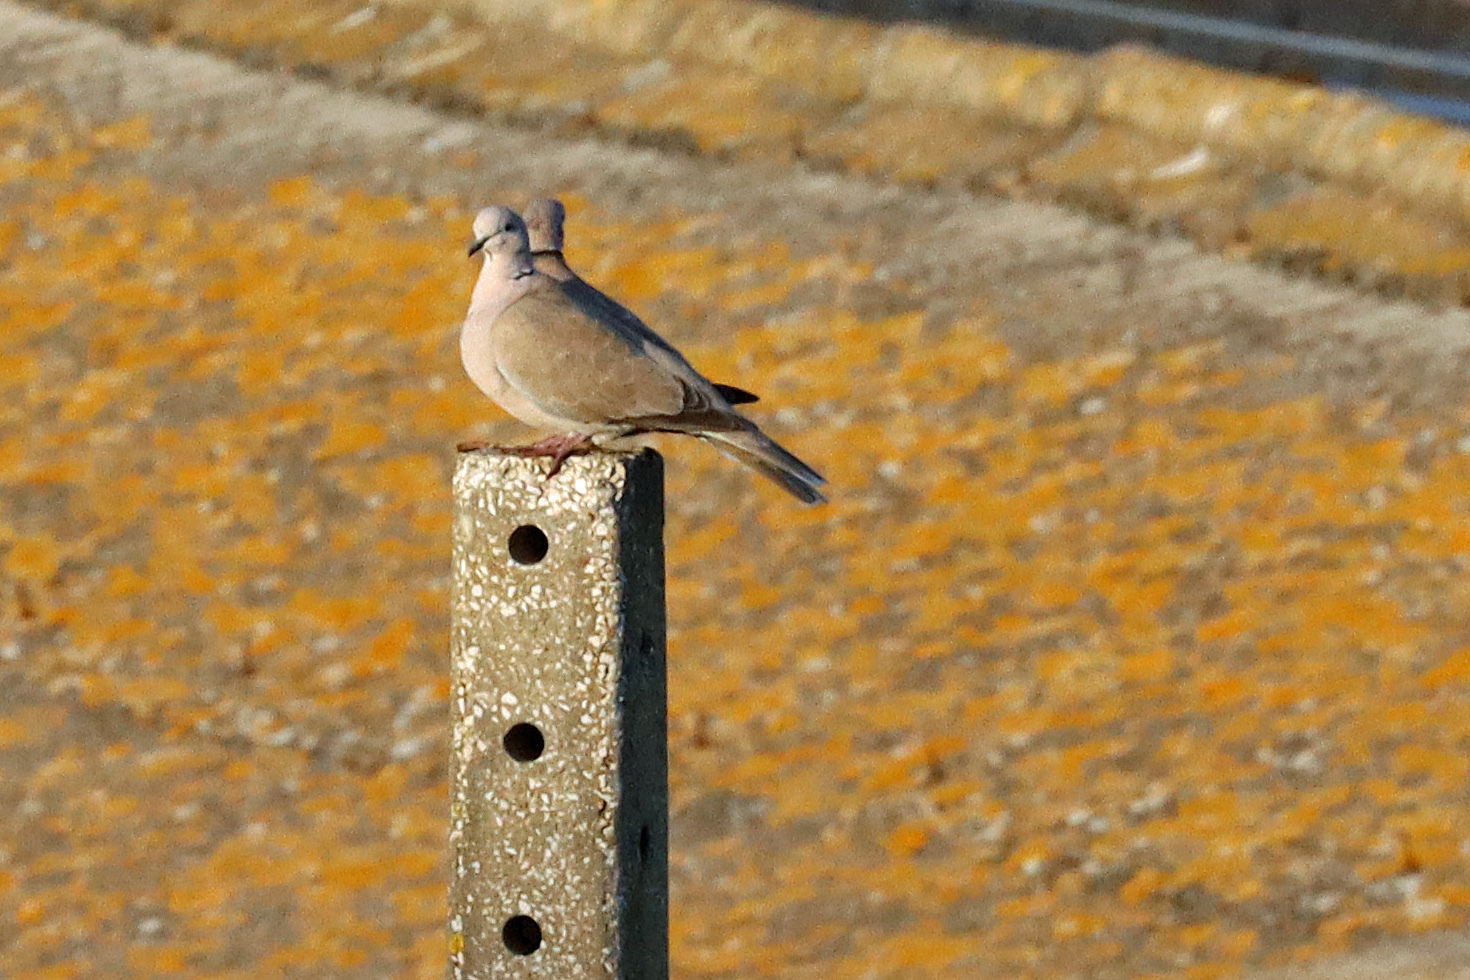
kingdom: Animalia
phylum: Chordata
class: Aves
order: Columbiformes
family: Columbidae
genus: Streptopelia
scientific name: Streptopelia decaocto
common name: Eurasian collared dove
